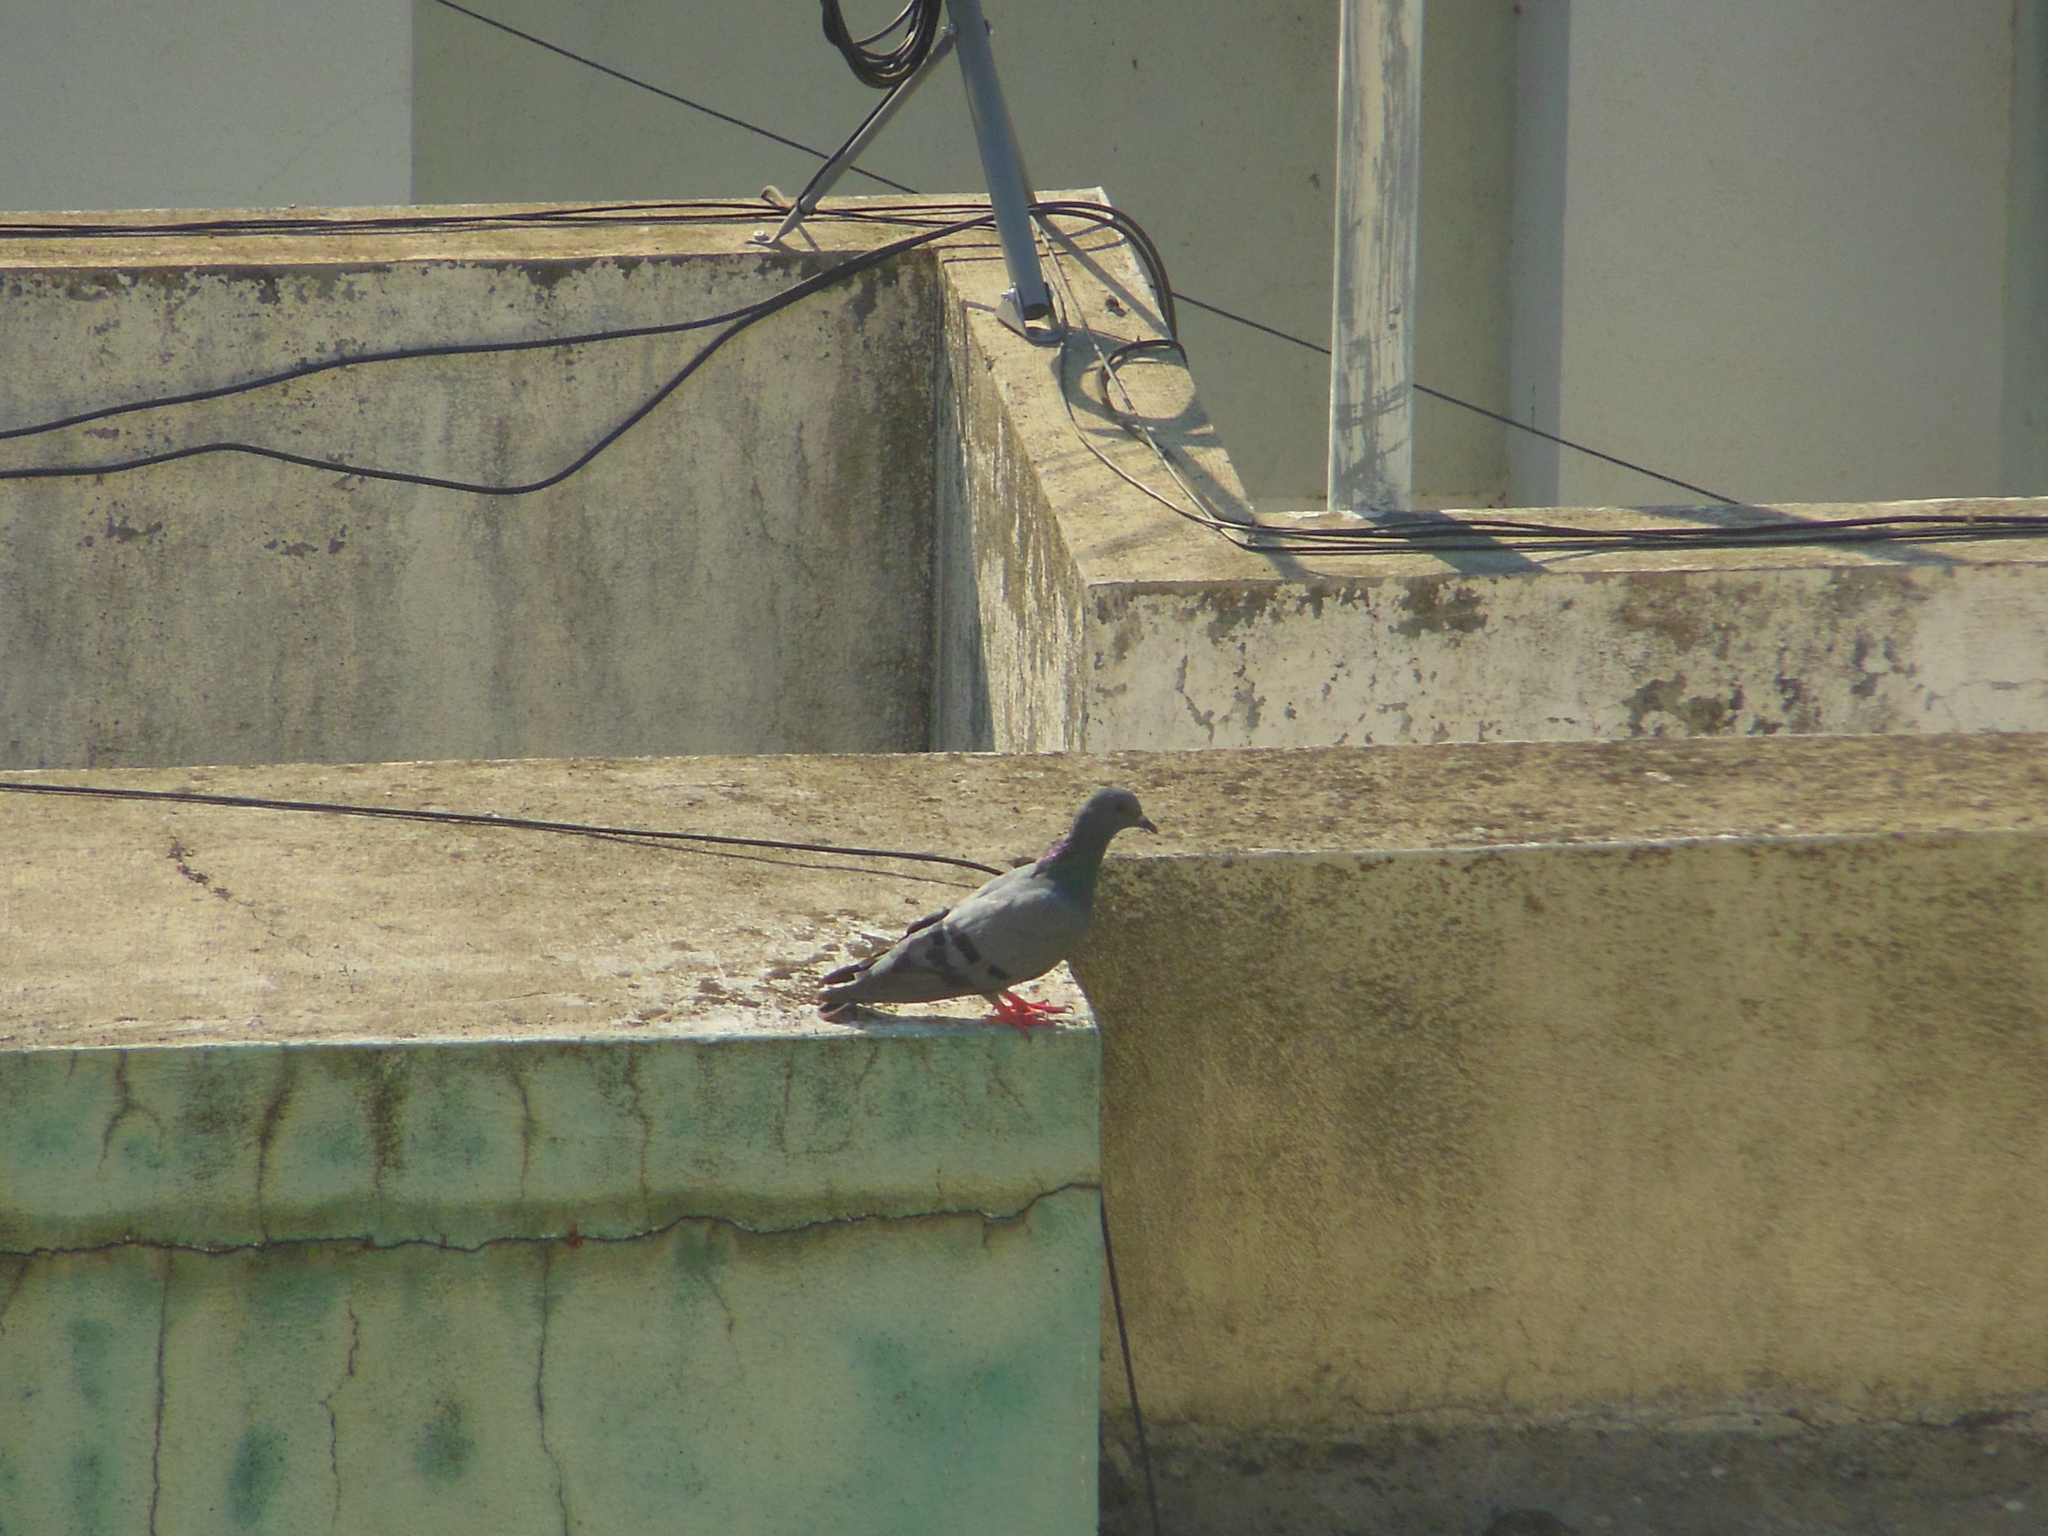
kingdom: Animalia
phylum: Chordata
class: Aves
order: Columbiformes
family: Columbidae
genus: Columba
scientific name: Columba livia
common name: Rock pigeon
